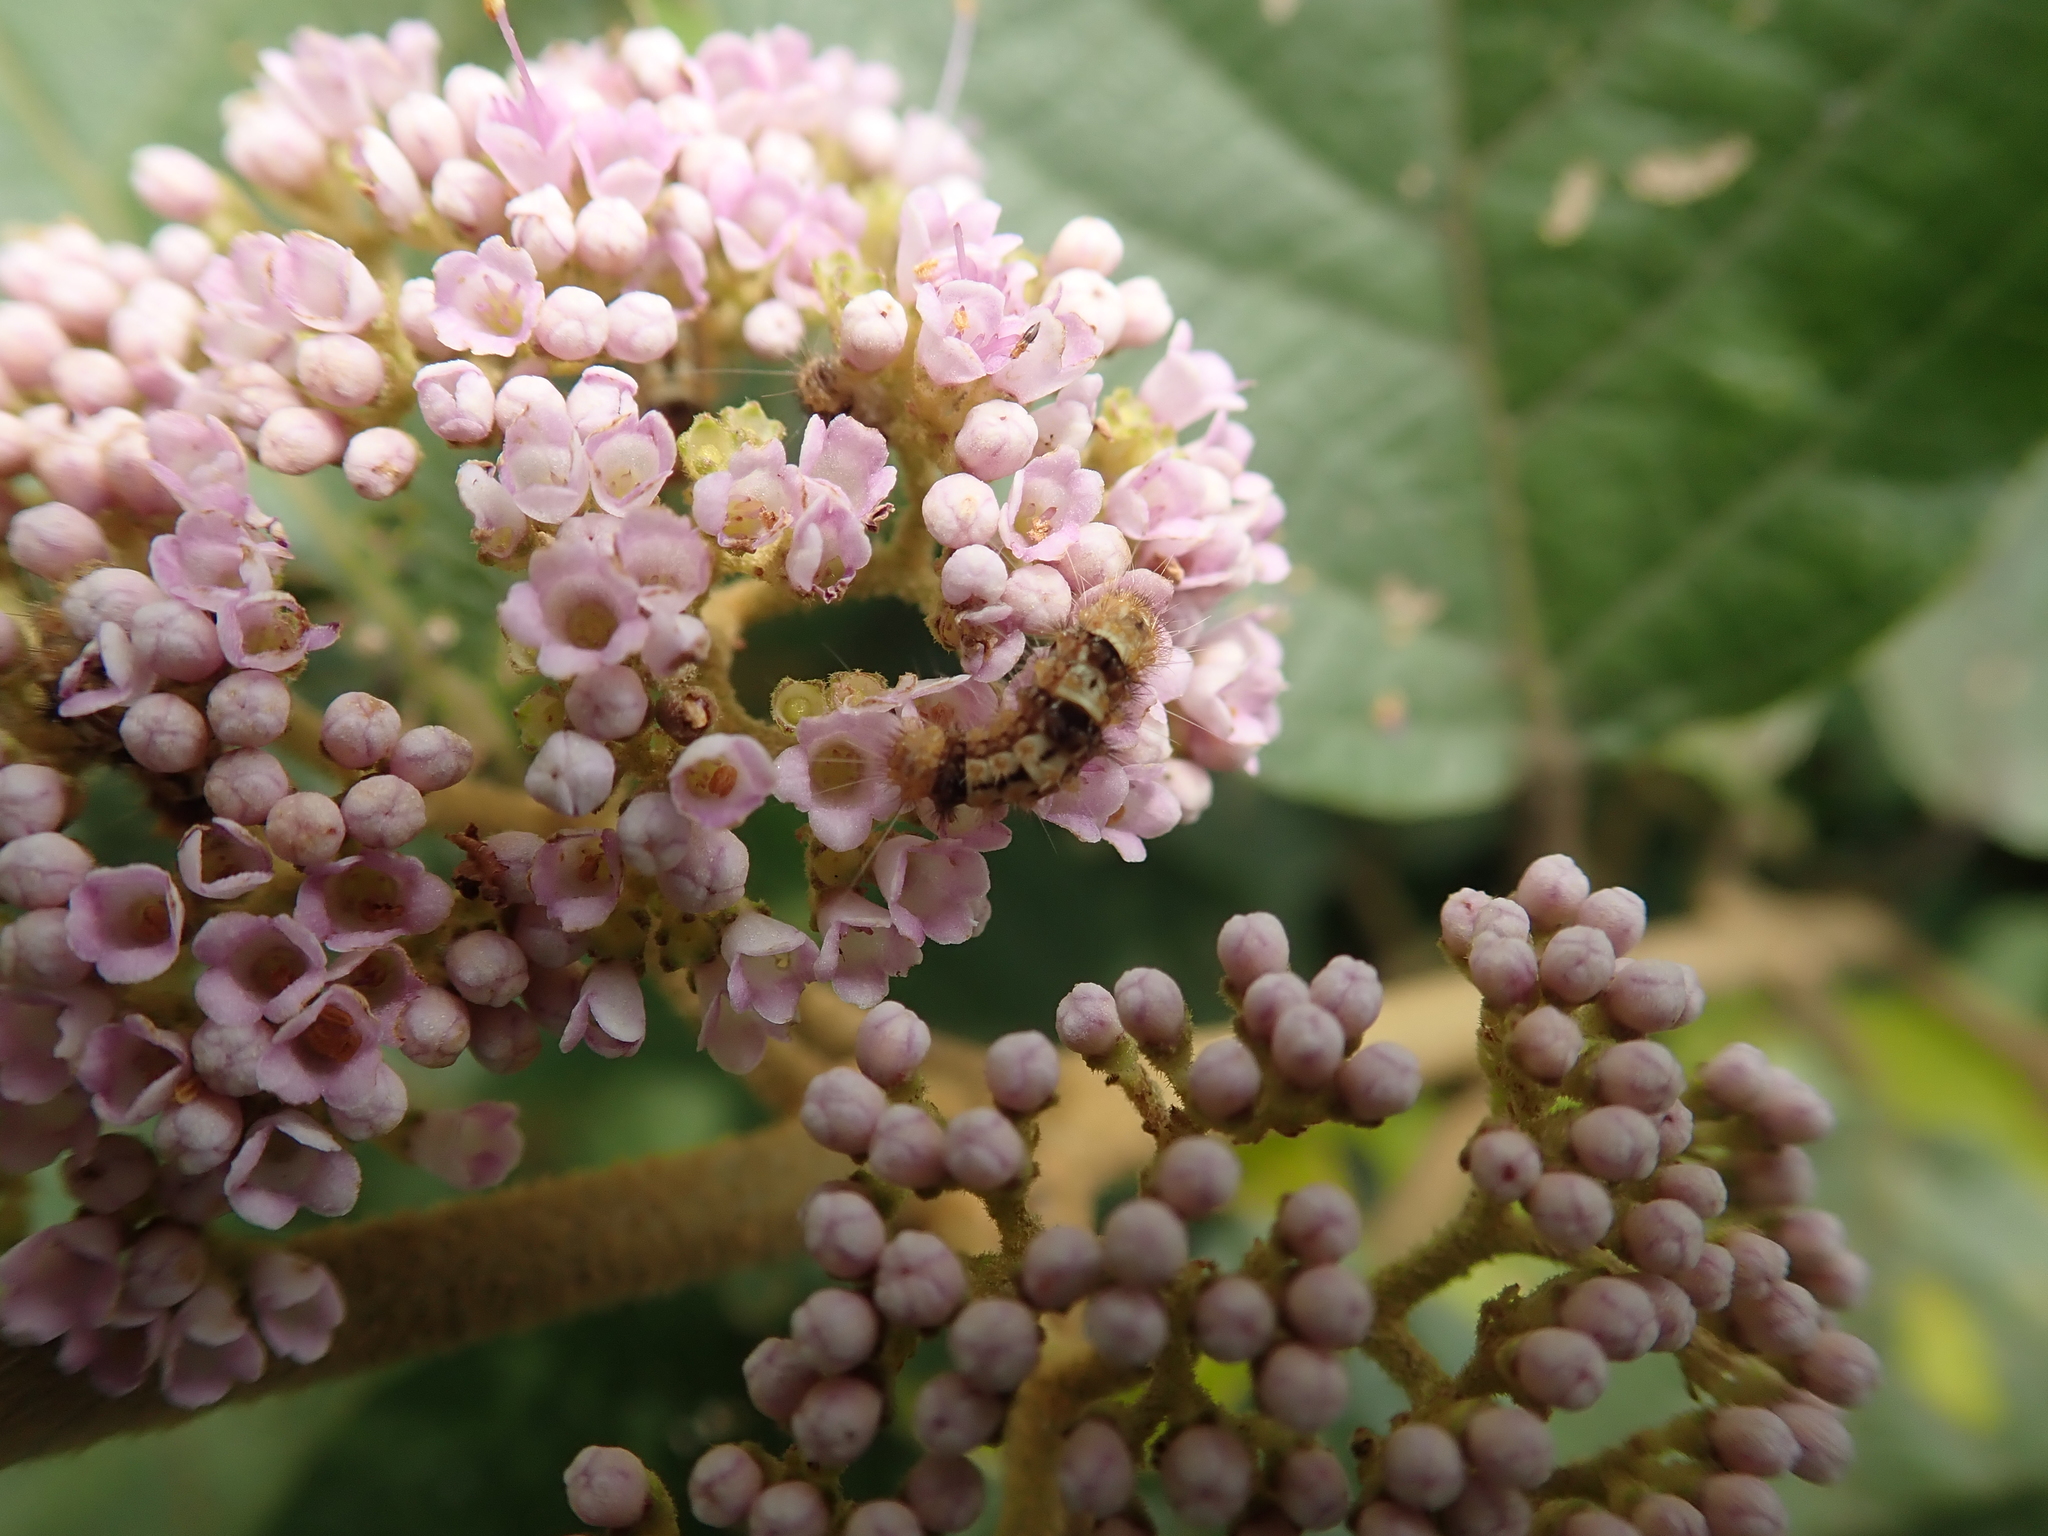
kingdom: Plantae
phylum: Tracheophyta
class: Magnoliopsida
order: Lamiales
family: Lamiaceae
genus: Callicarpa
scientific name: Callicarpa pedunculata
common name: Velvetleaf
